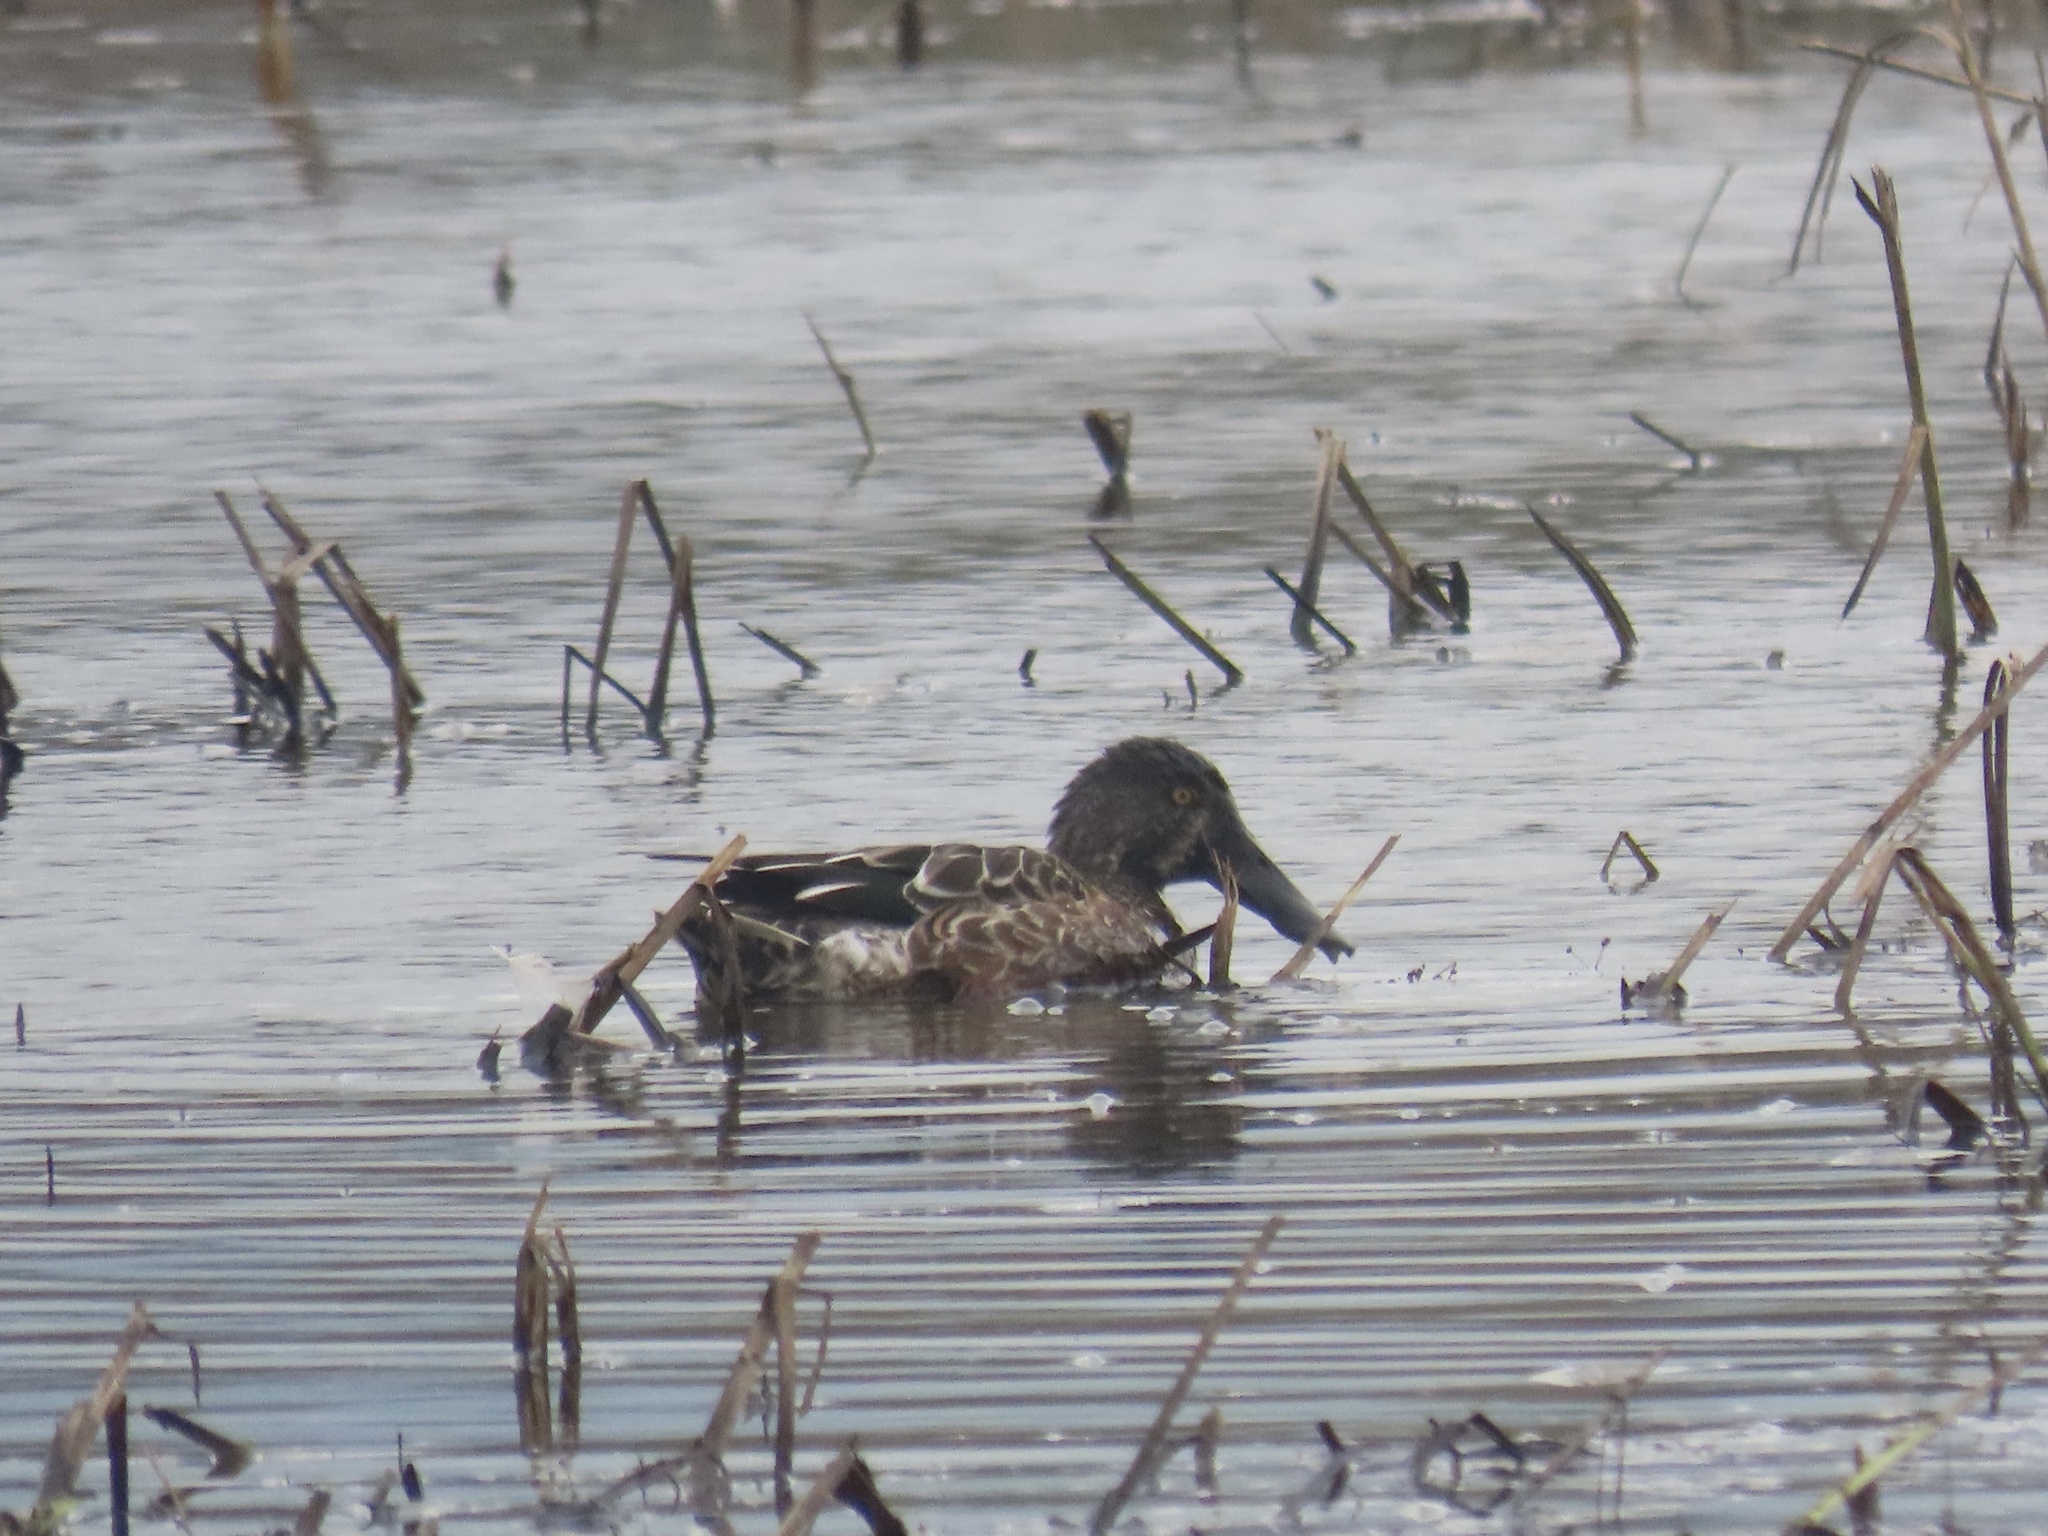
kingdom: Animalia
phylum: Chordata
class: Aves
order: Anseriformes
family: Anatidae
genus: Spatula
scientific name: Spatula clypeata
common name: Northern shoveler
